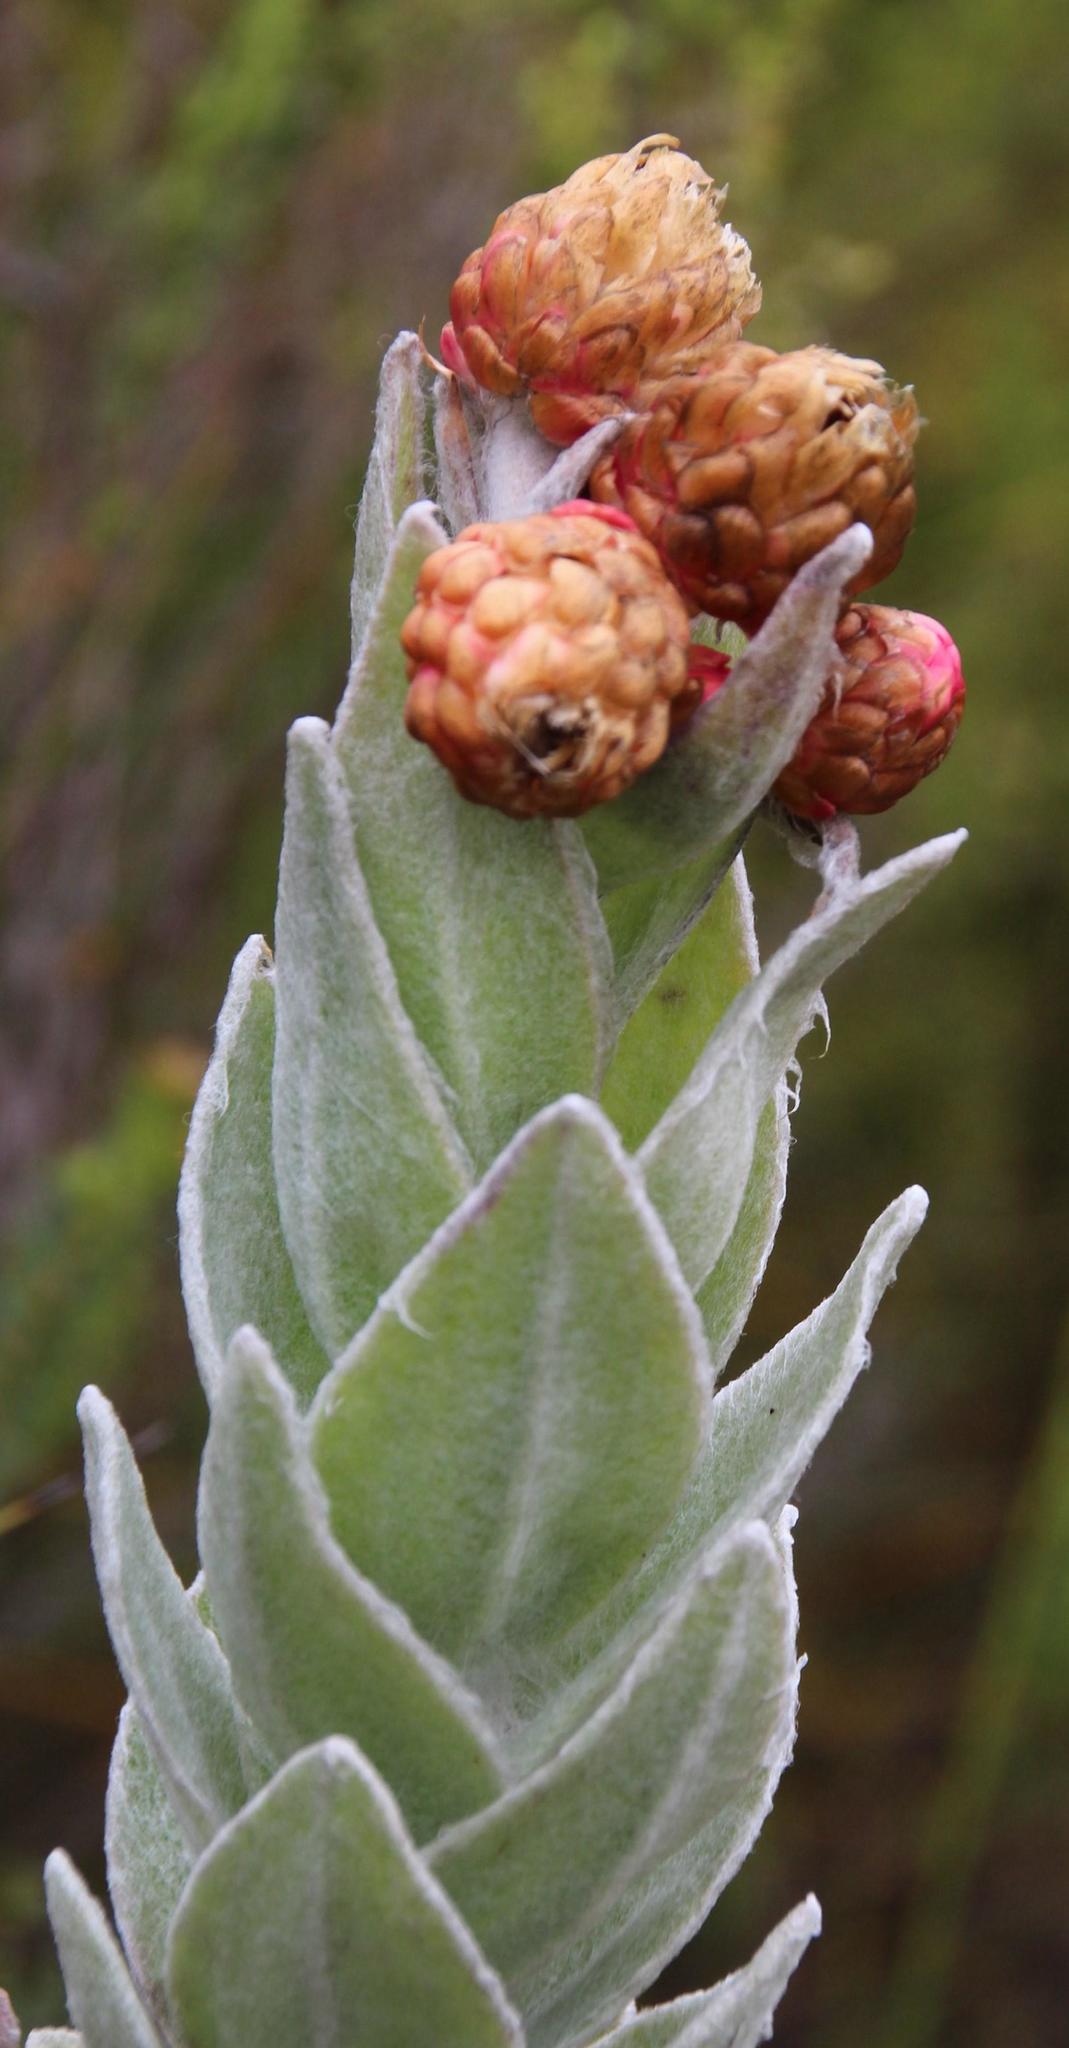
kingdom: Plantae
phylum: Tracheophyta
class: Magnoliopsida
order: Asterales
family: Asteraceae
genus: Syncarpha
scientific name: Syncarpha eximia
